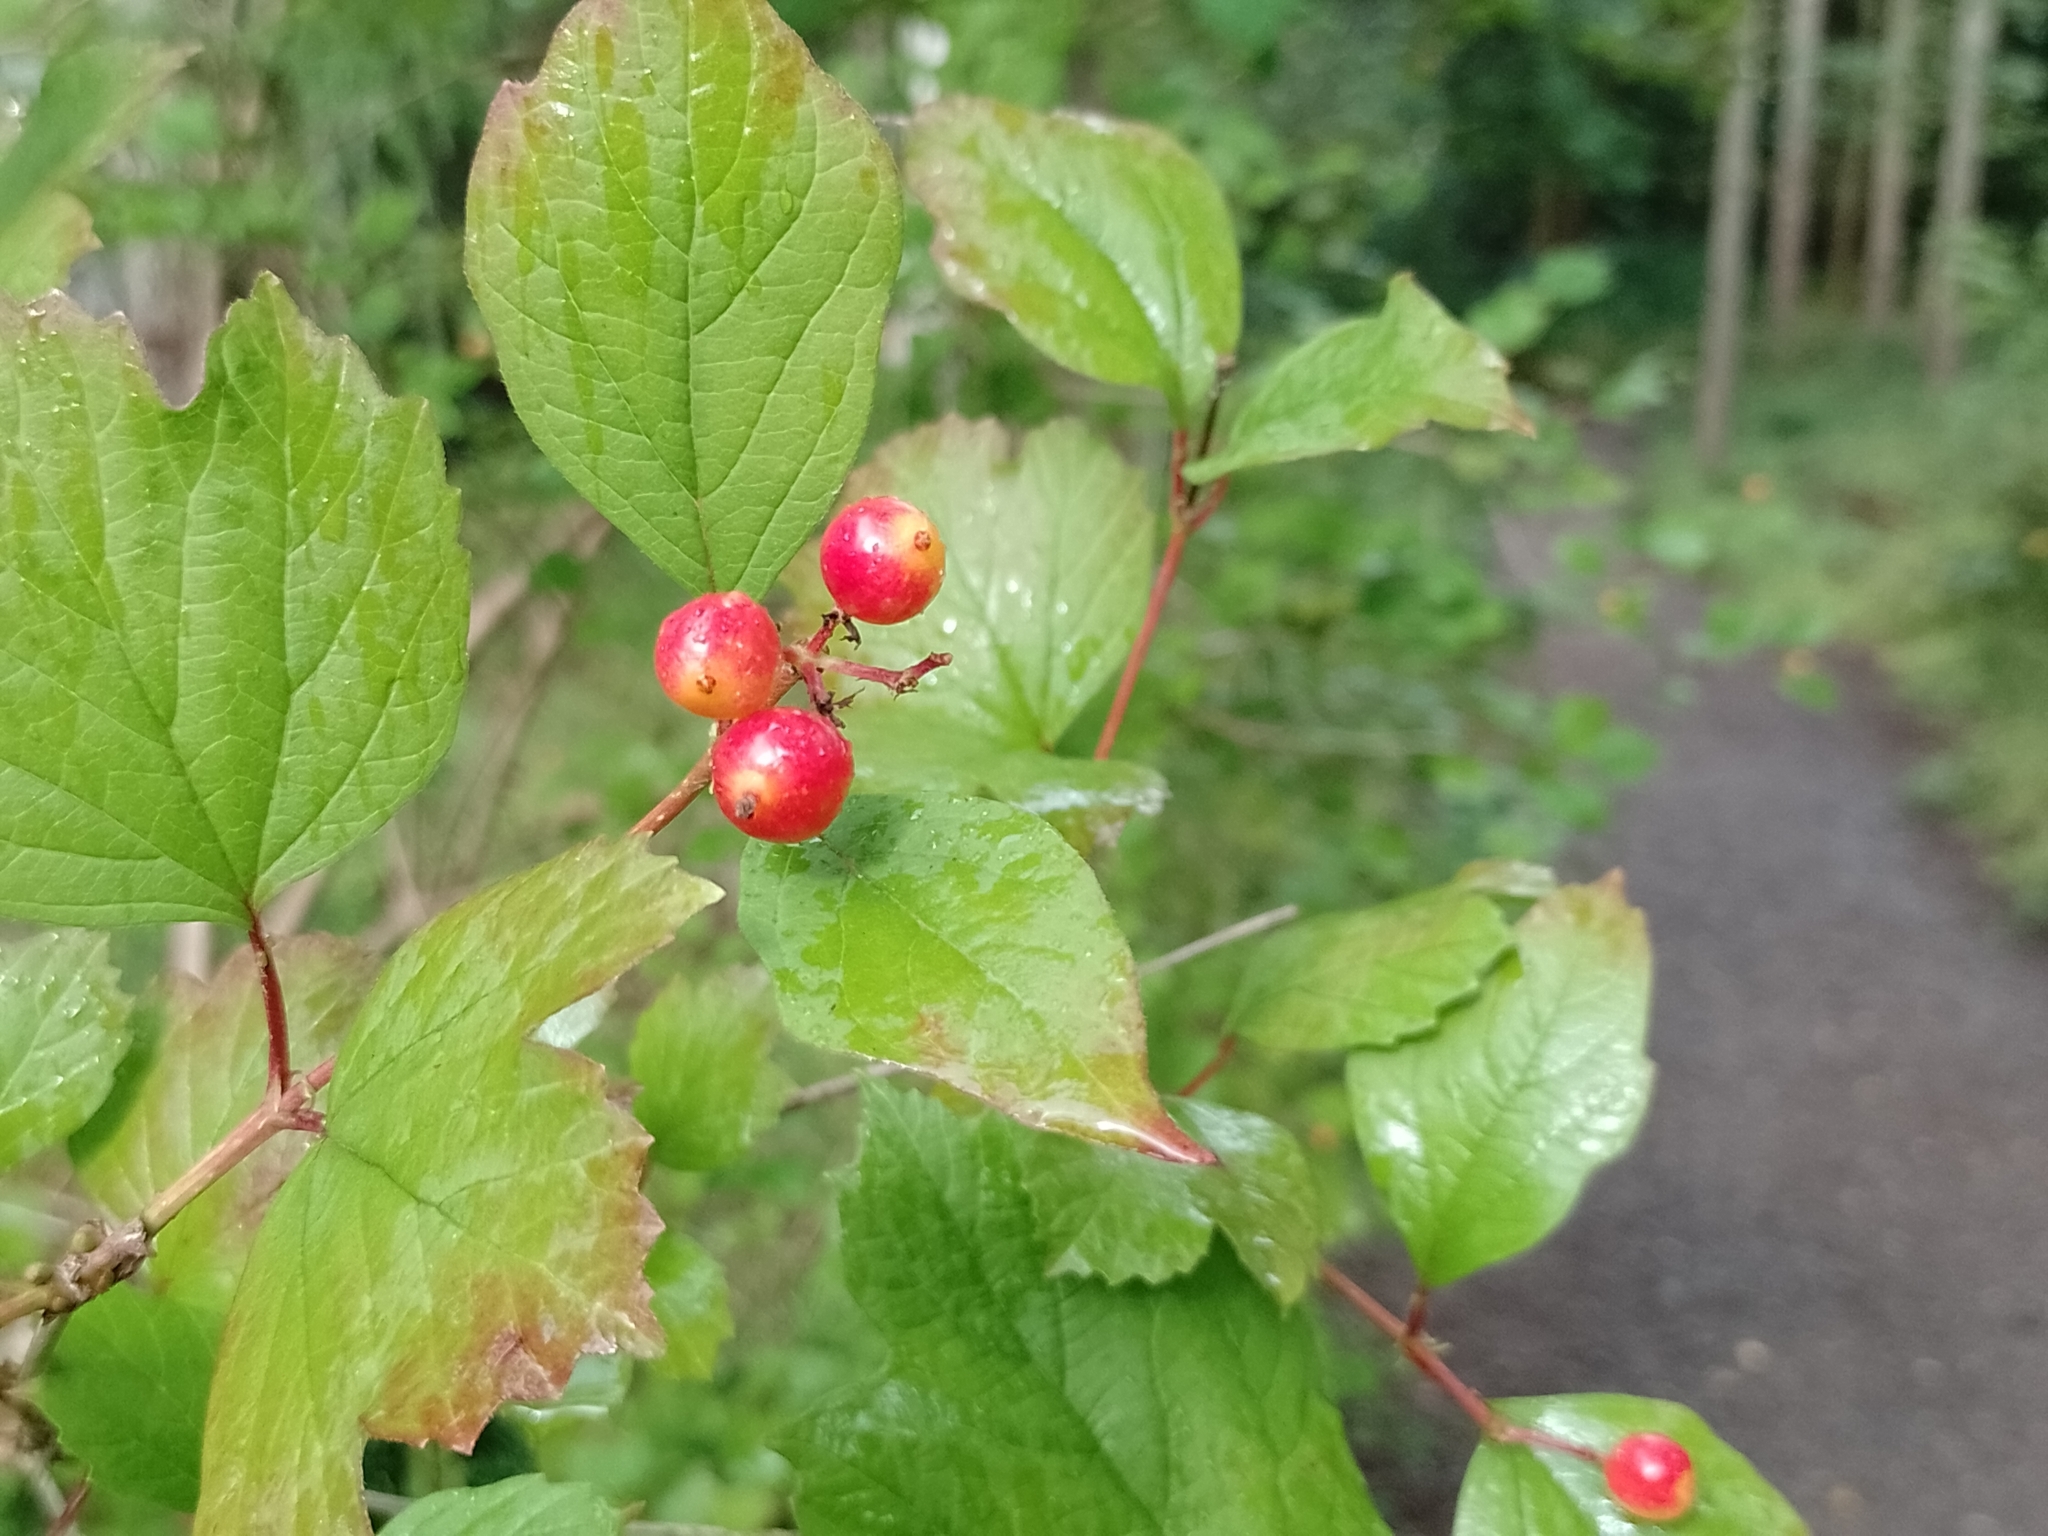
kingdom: Plantae
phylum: Tracheophyta
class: Magnoliopsida
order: Dipsacales
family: Viburnaceae
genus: Viburnum
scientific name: Viburnum opulus
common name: Guelder-rose
